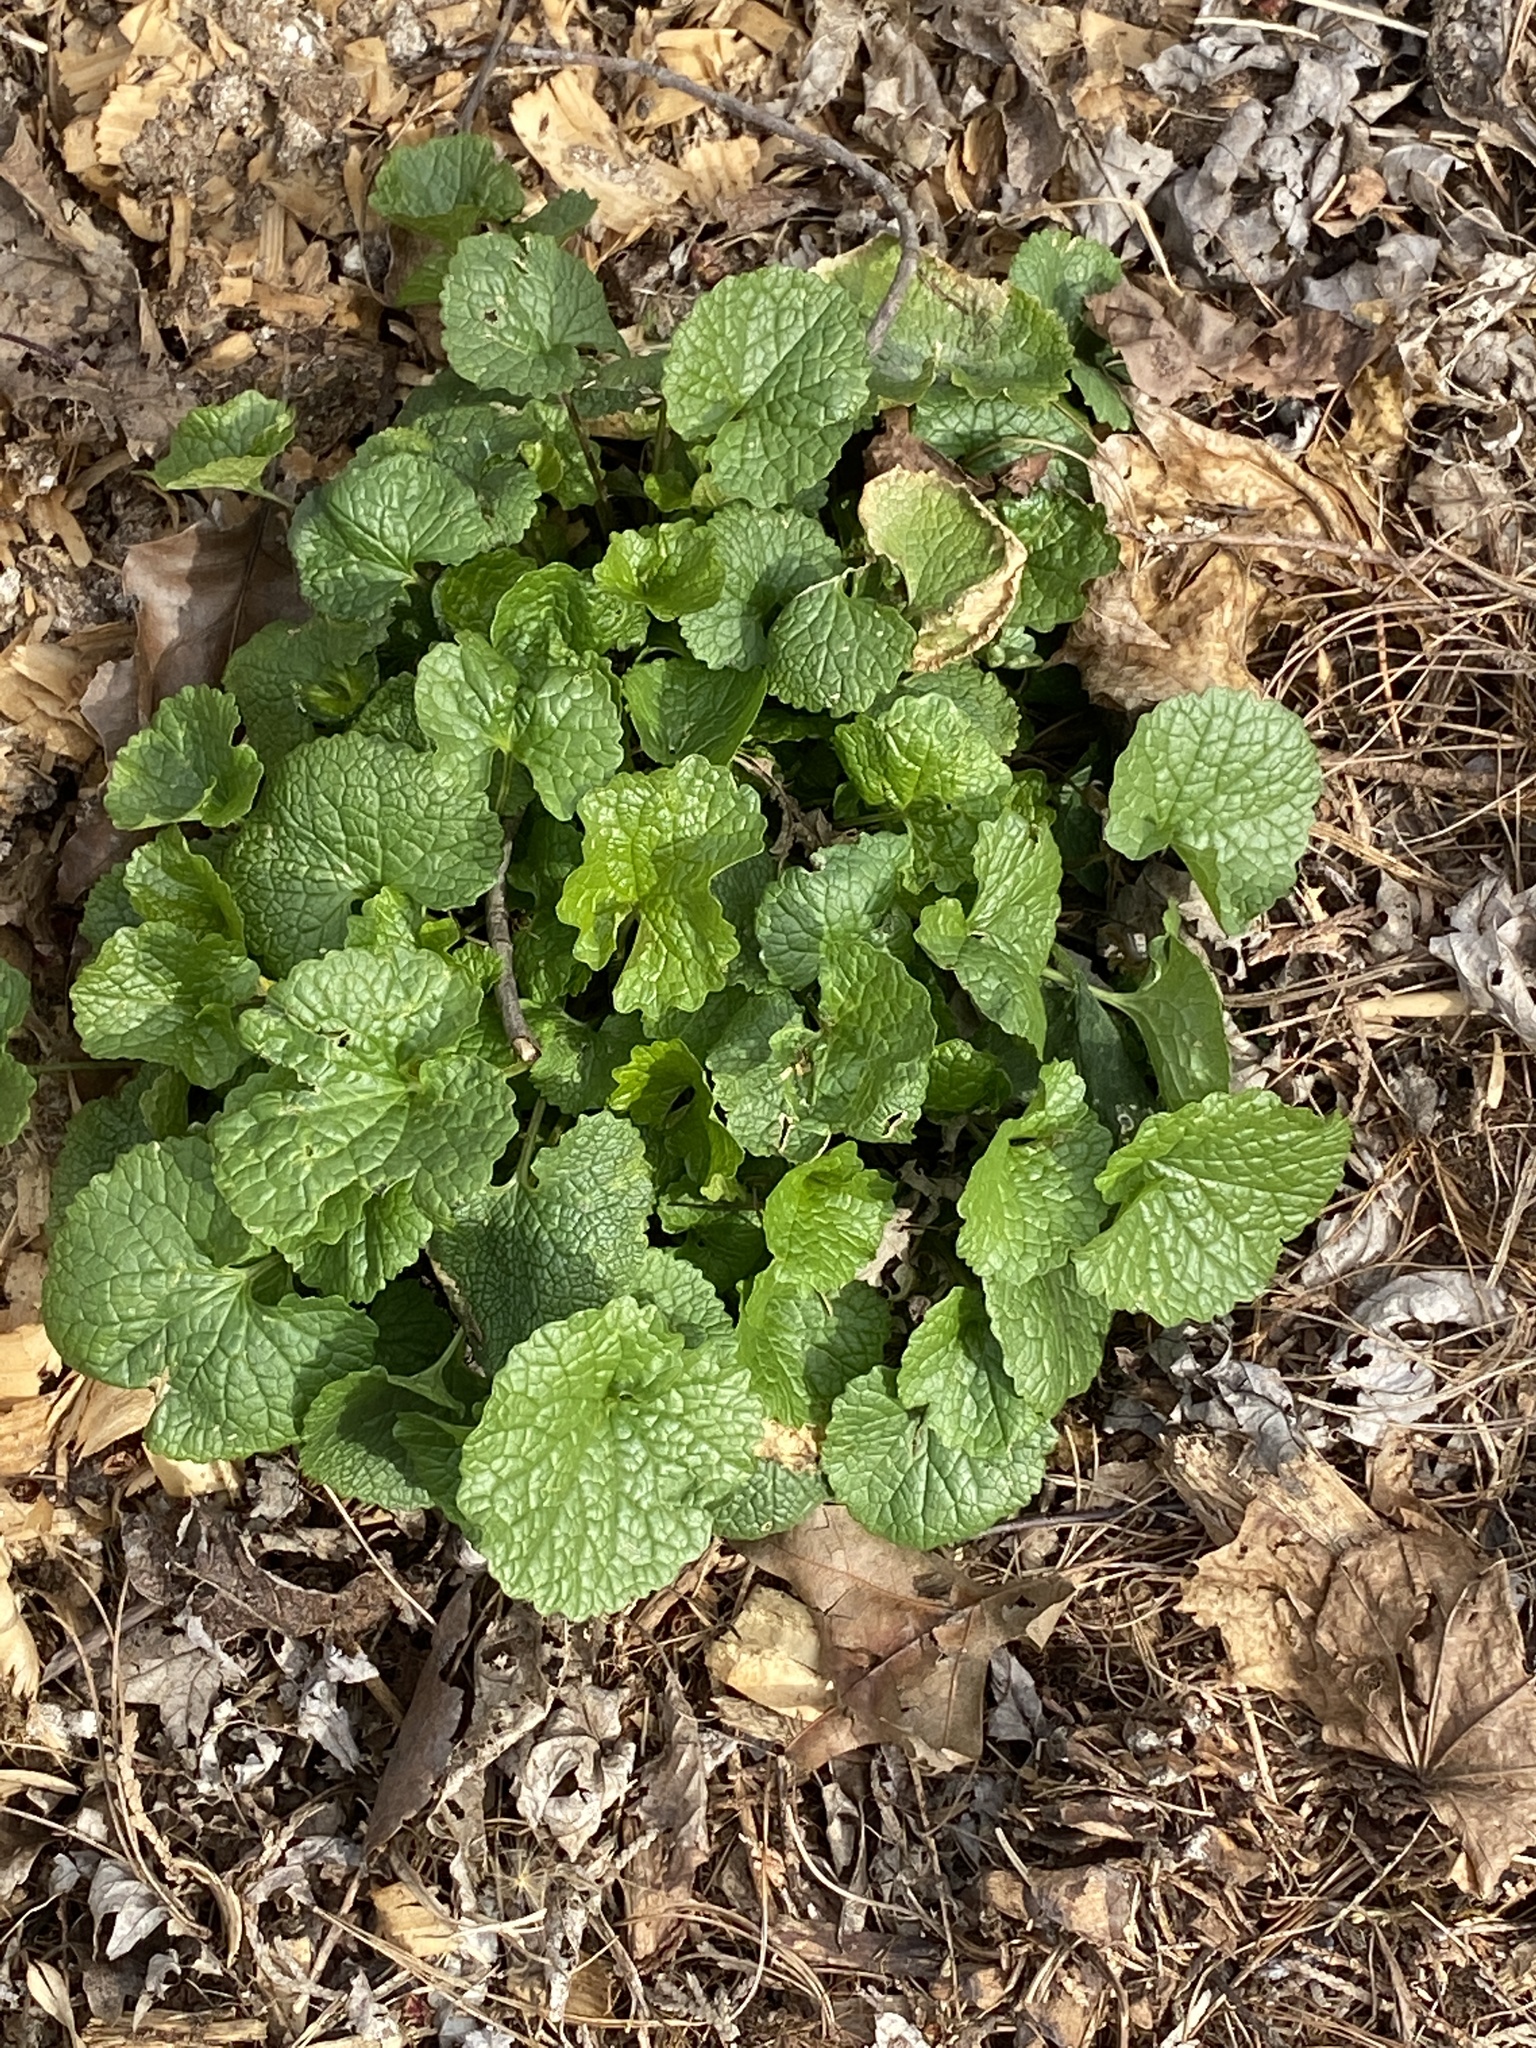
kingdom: Plantae
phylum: Tracheophyta
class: Magnoliopsida
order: Brassicales
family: Brassicaceae
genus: Alliaria
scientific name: Alliaria petiolata
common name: Garlic mustard
